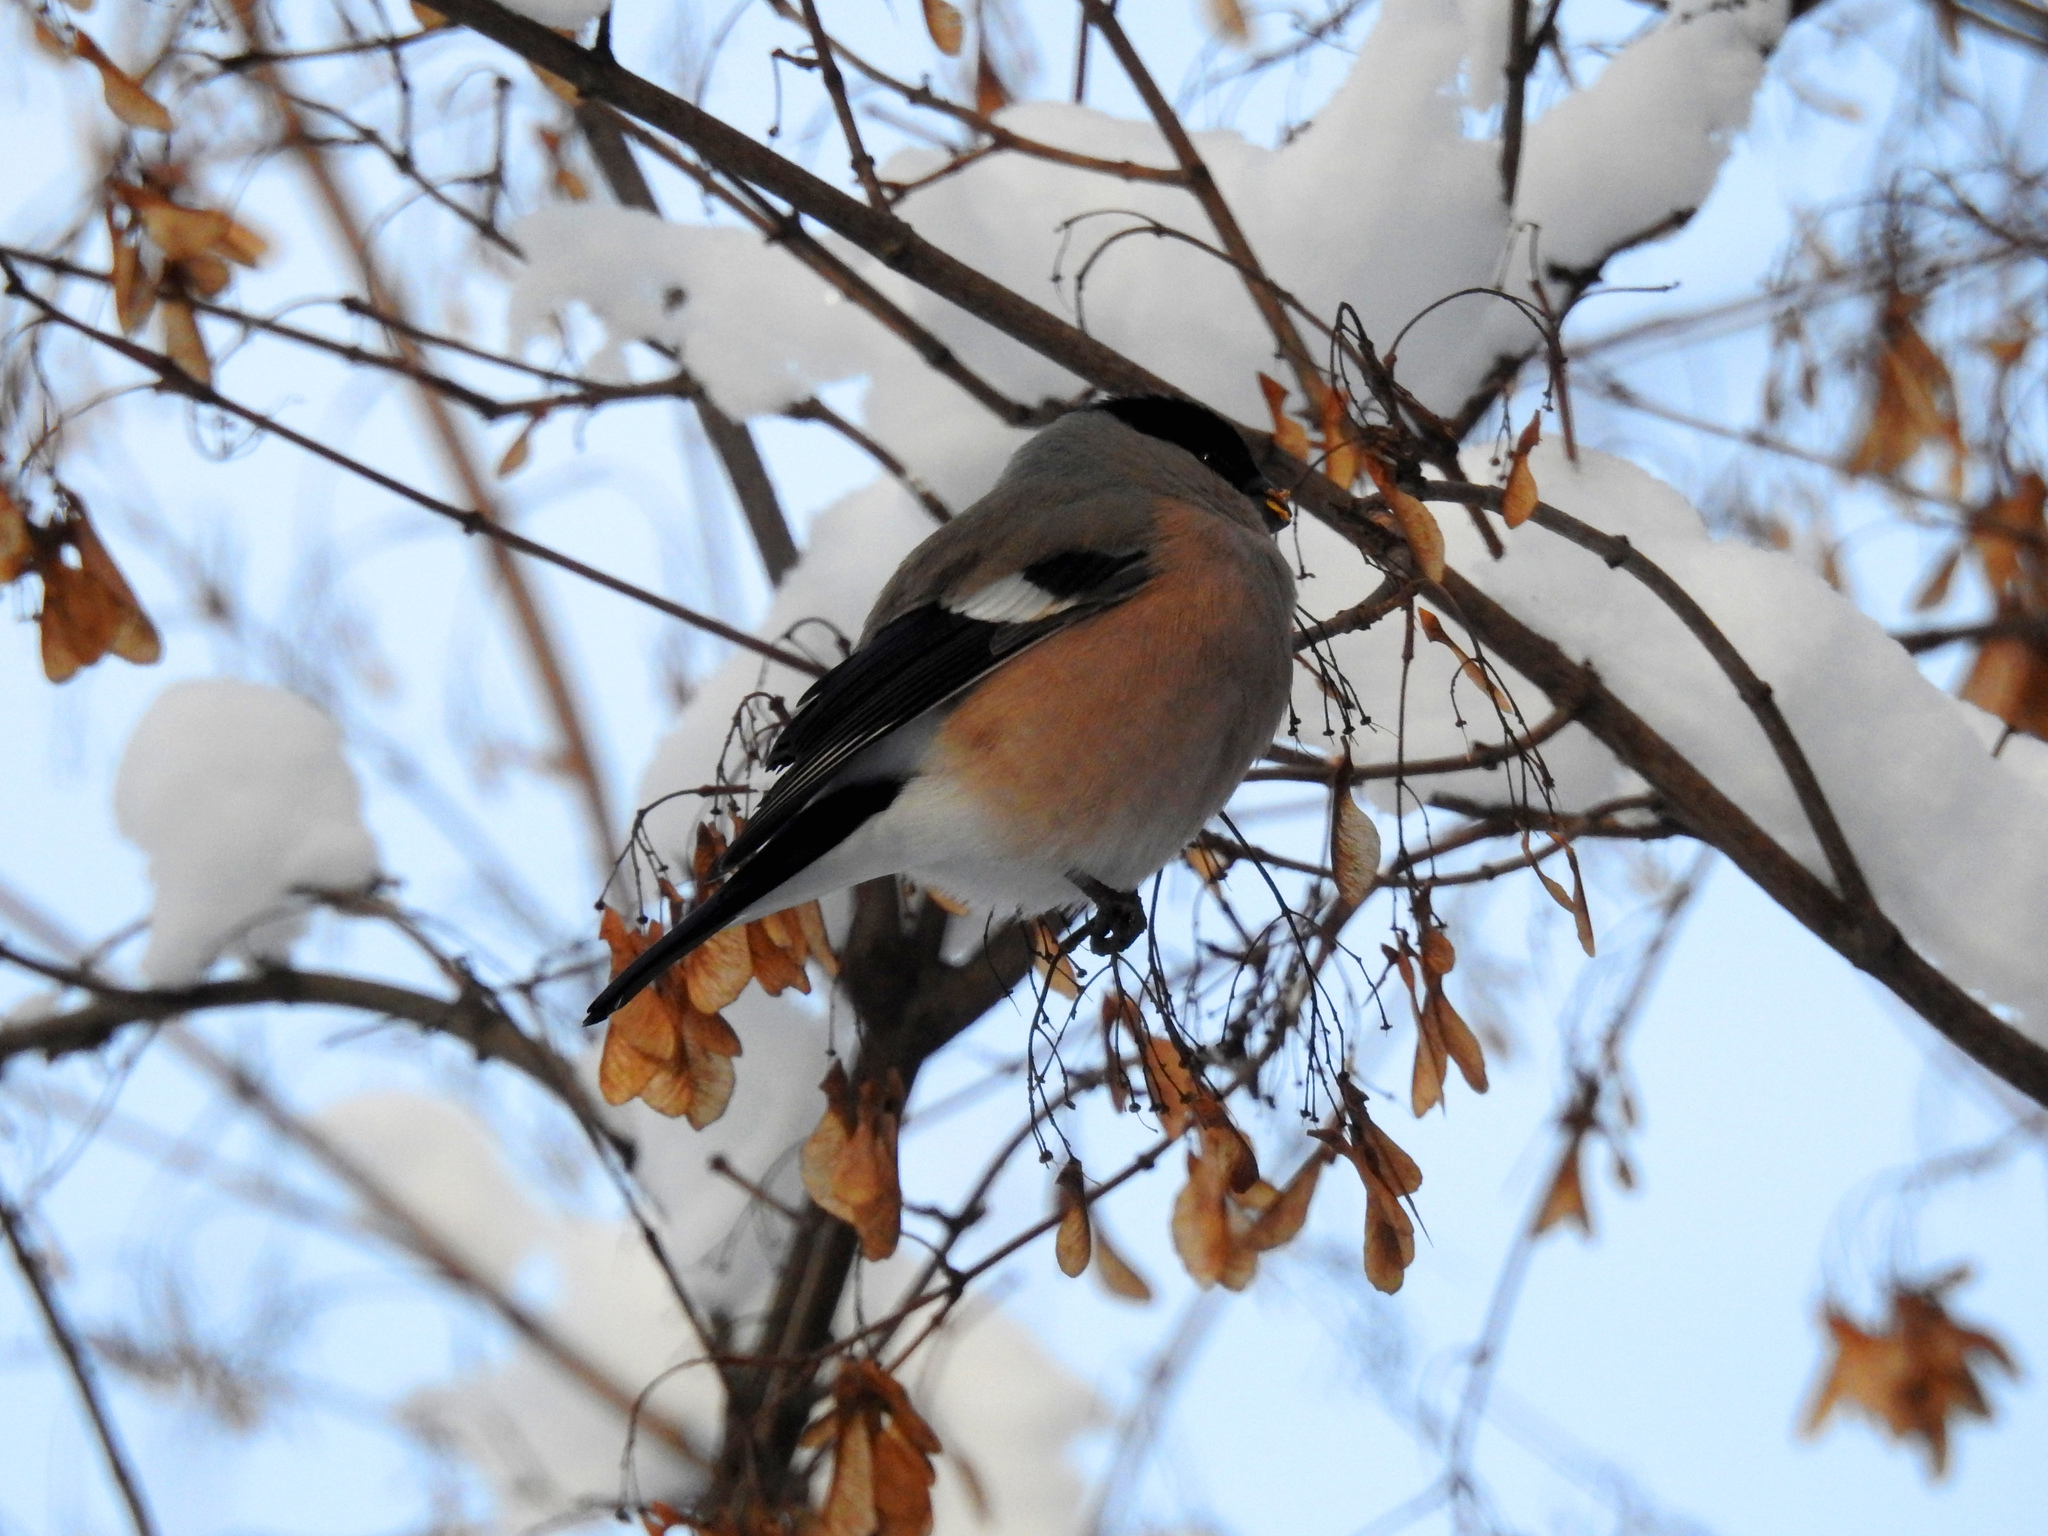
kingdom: Animalia
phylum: Chordata
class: Aves
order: Passeriformes
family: Fringillidae
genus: Pyrrhula
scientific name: Pyrrhula pyrrhula
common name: Eurasian bullfinch
